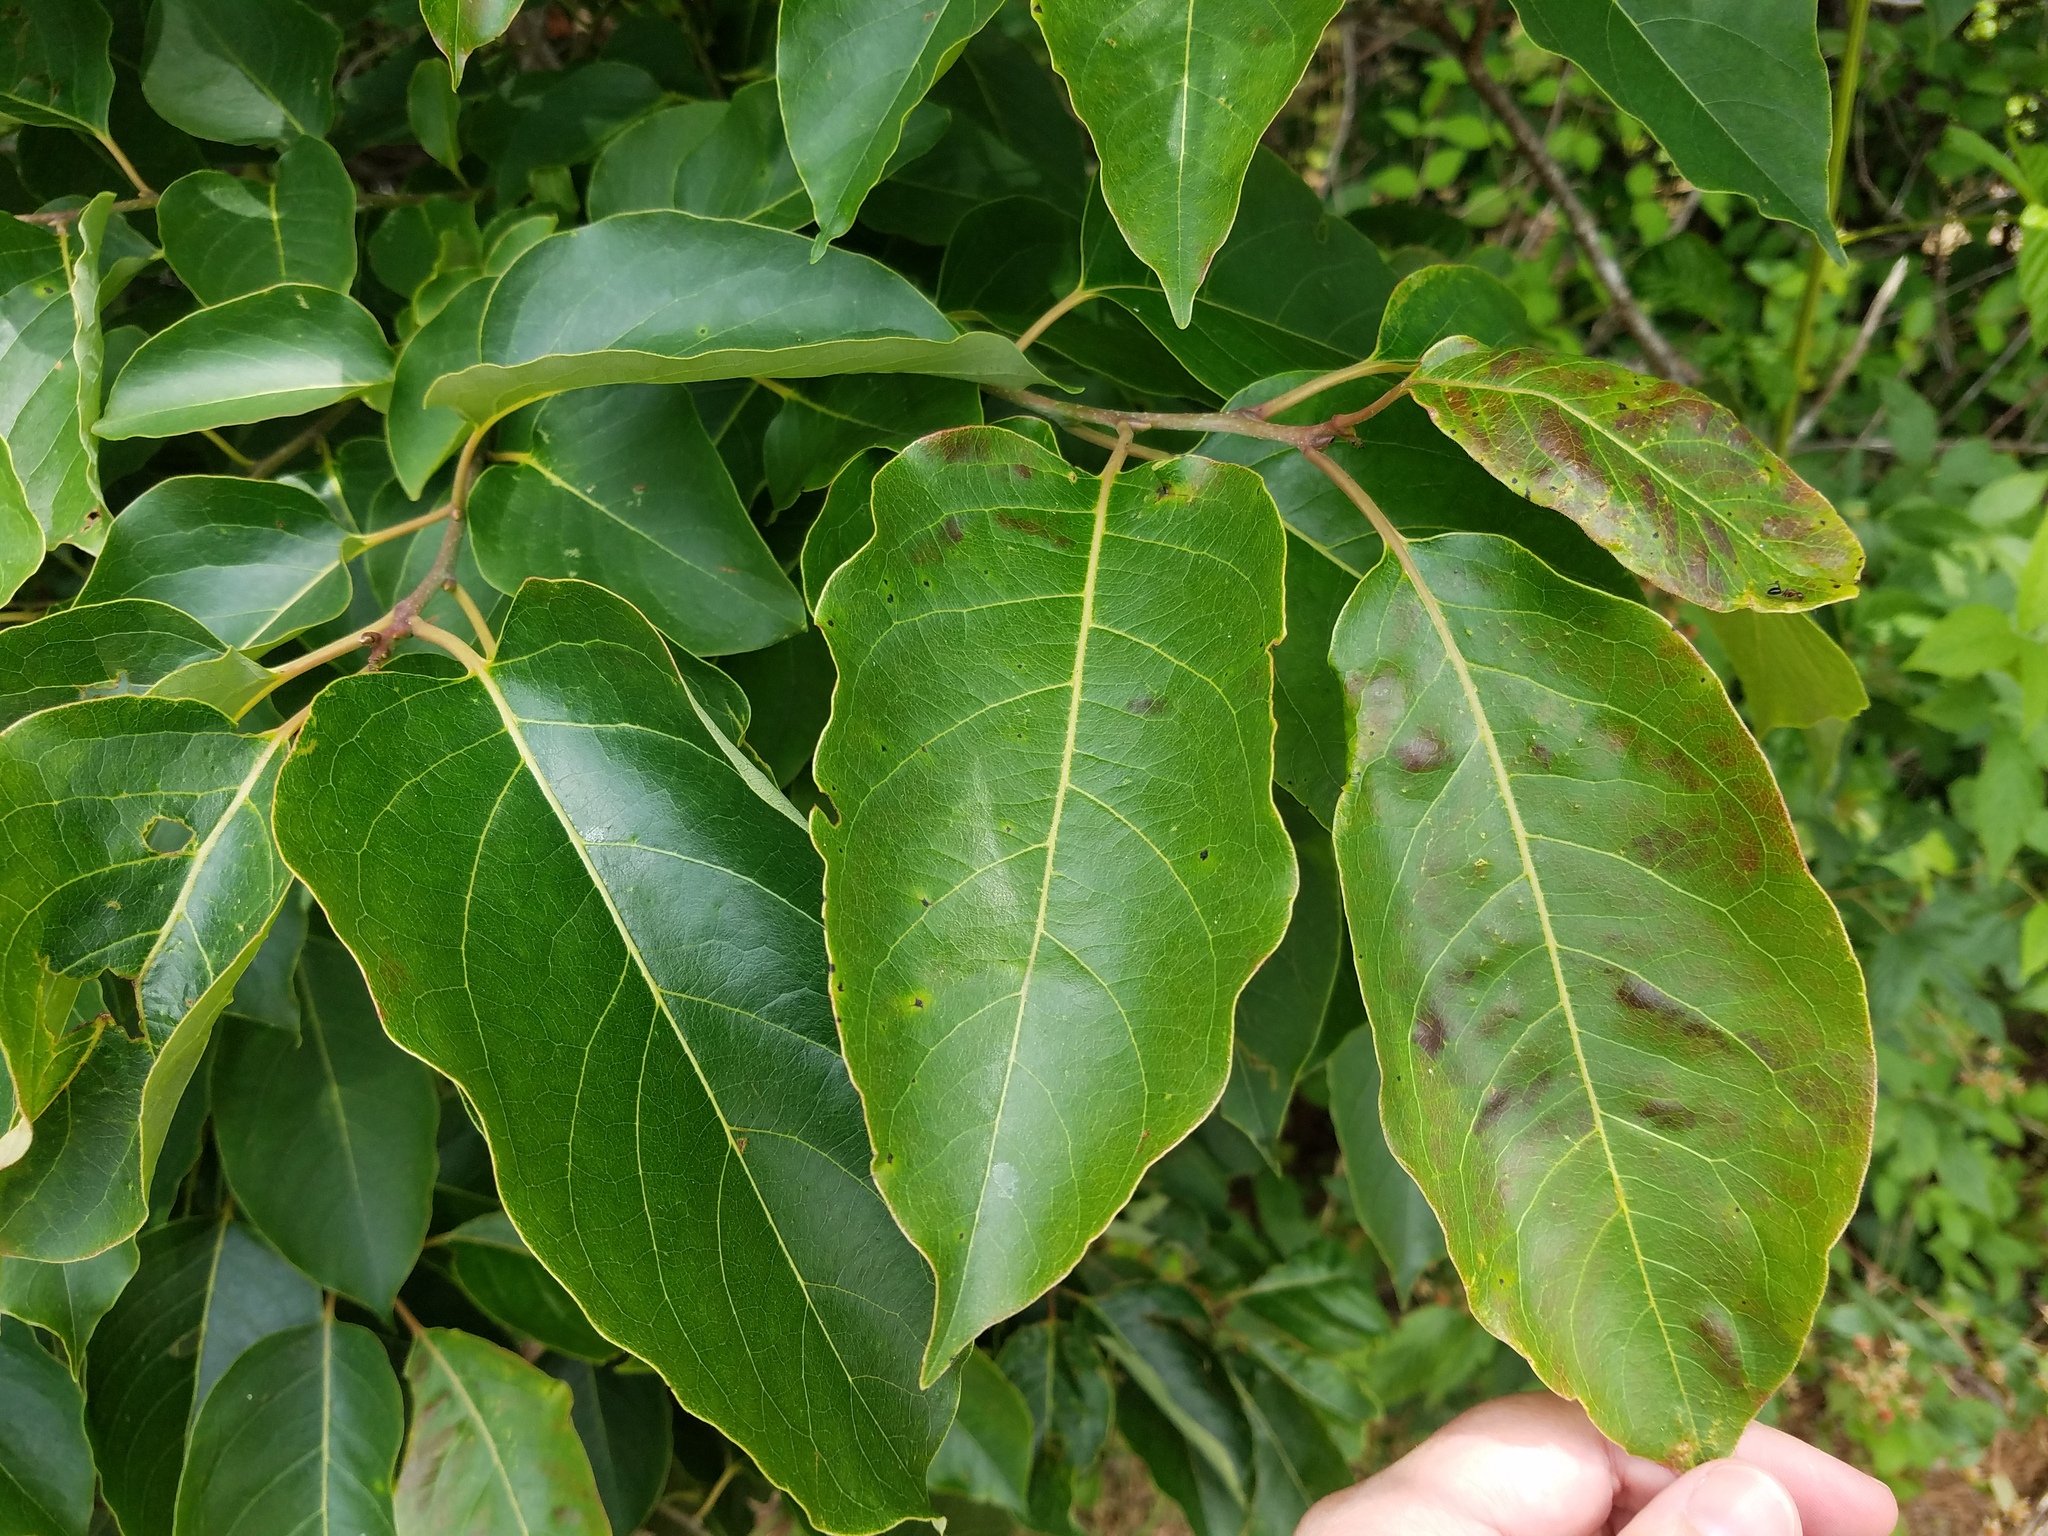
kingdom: Plantae
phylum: Tracheophyta
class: Magnoliopsida
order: Ericales
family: Ebenaceae
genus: Diospyros
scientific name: Diospyros virginiana
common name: Persimmon
